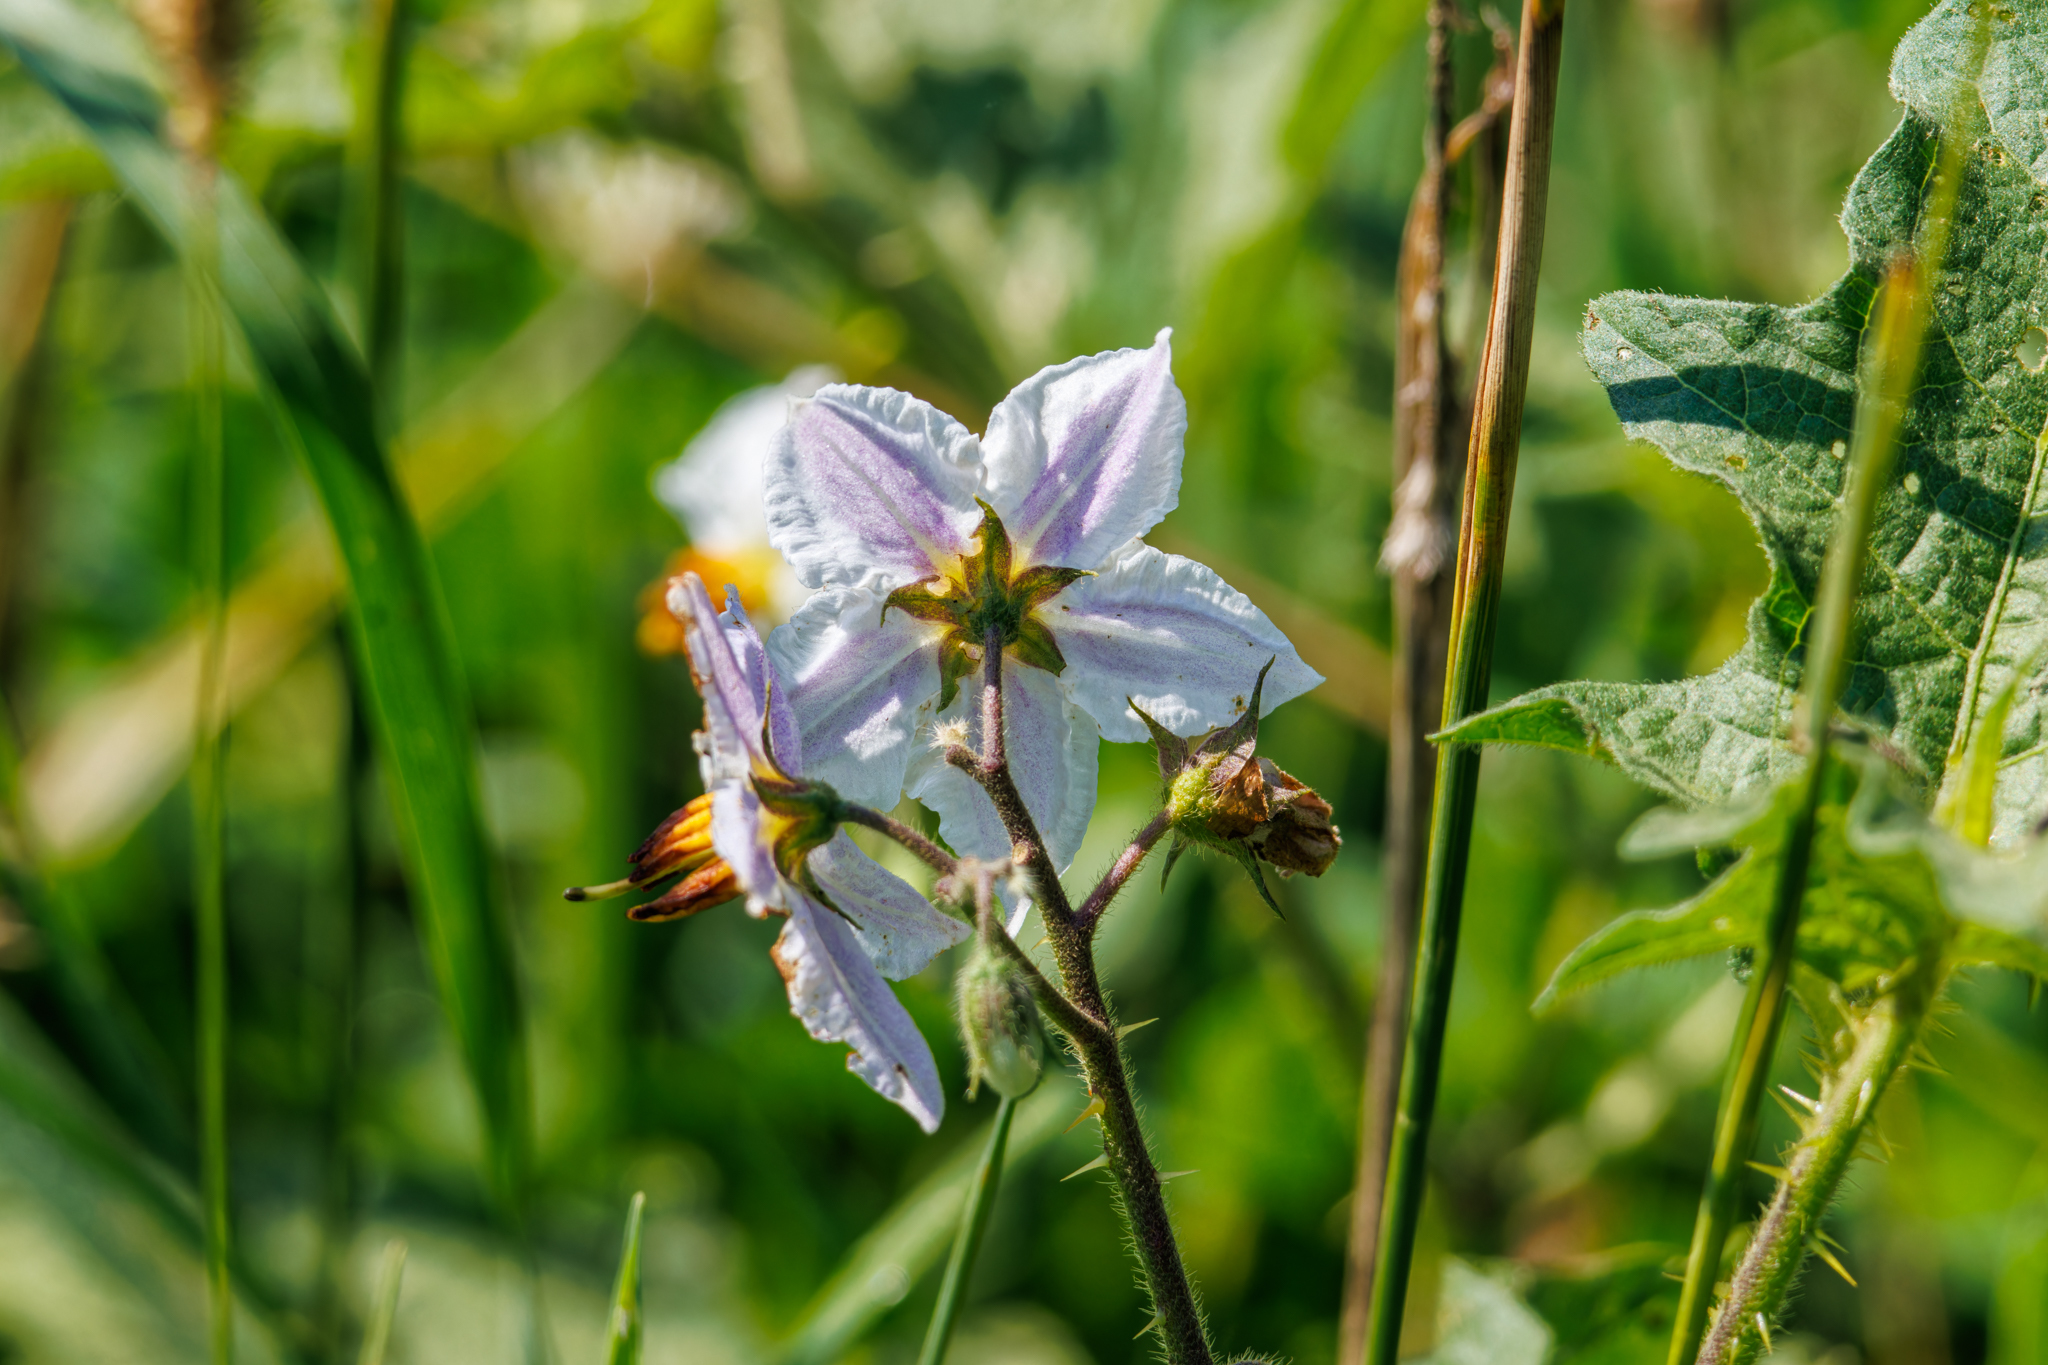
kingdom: Plantae
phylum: Tracheophyta
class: Magnoliopsida
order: Solanales
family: Solanaceae
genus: Solanum
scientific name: Solanum carolinense
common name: Horse-nettle
